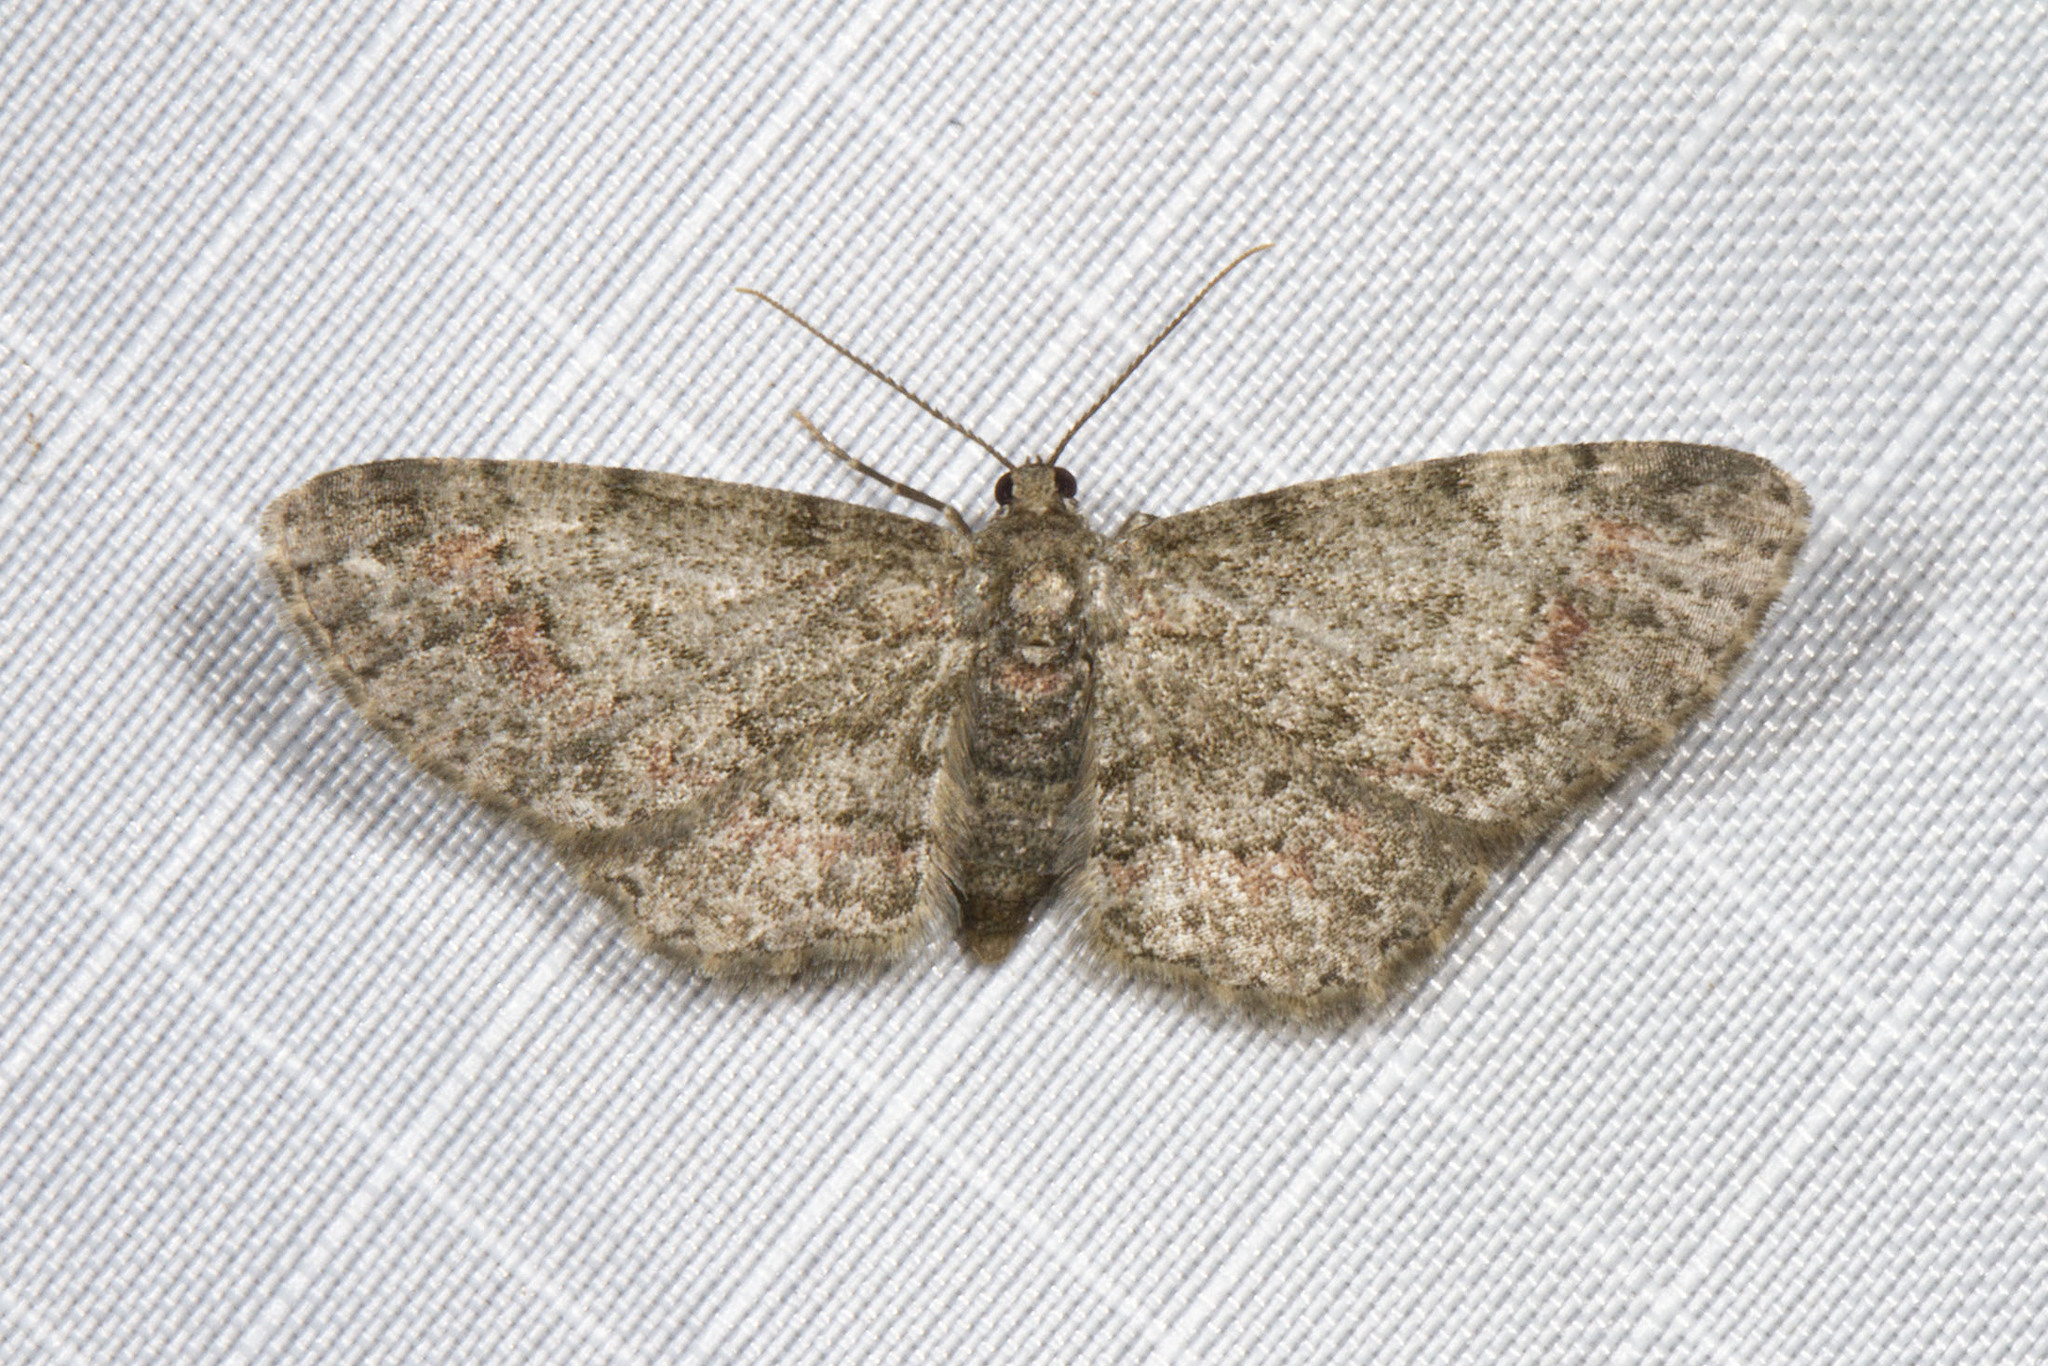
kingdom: Animalia
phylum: Arthropoda
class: Insecta
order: Lepidoptera
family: Geometridae
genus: Glenoides
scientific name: Glenoides texanaria
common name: Texas gray
